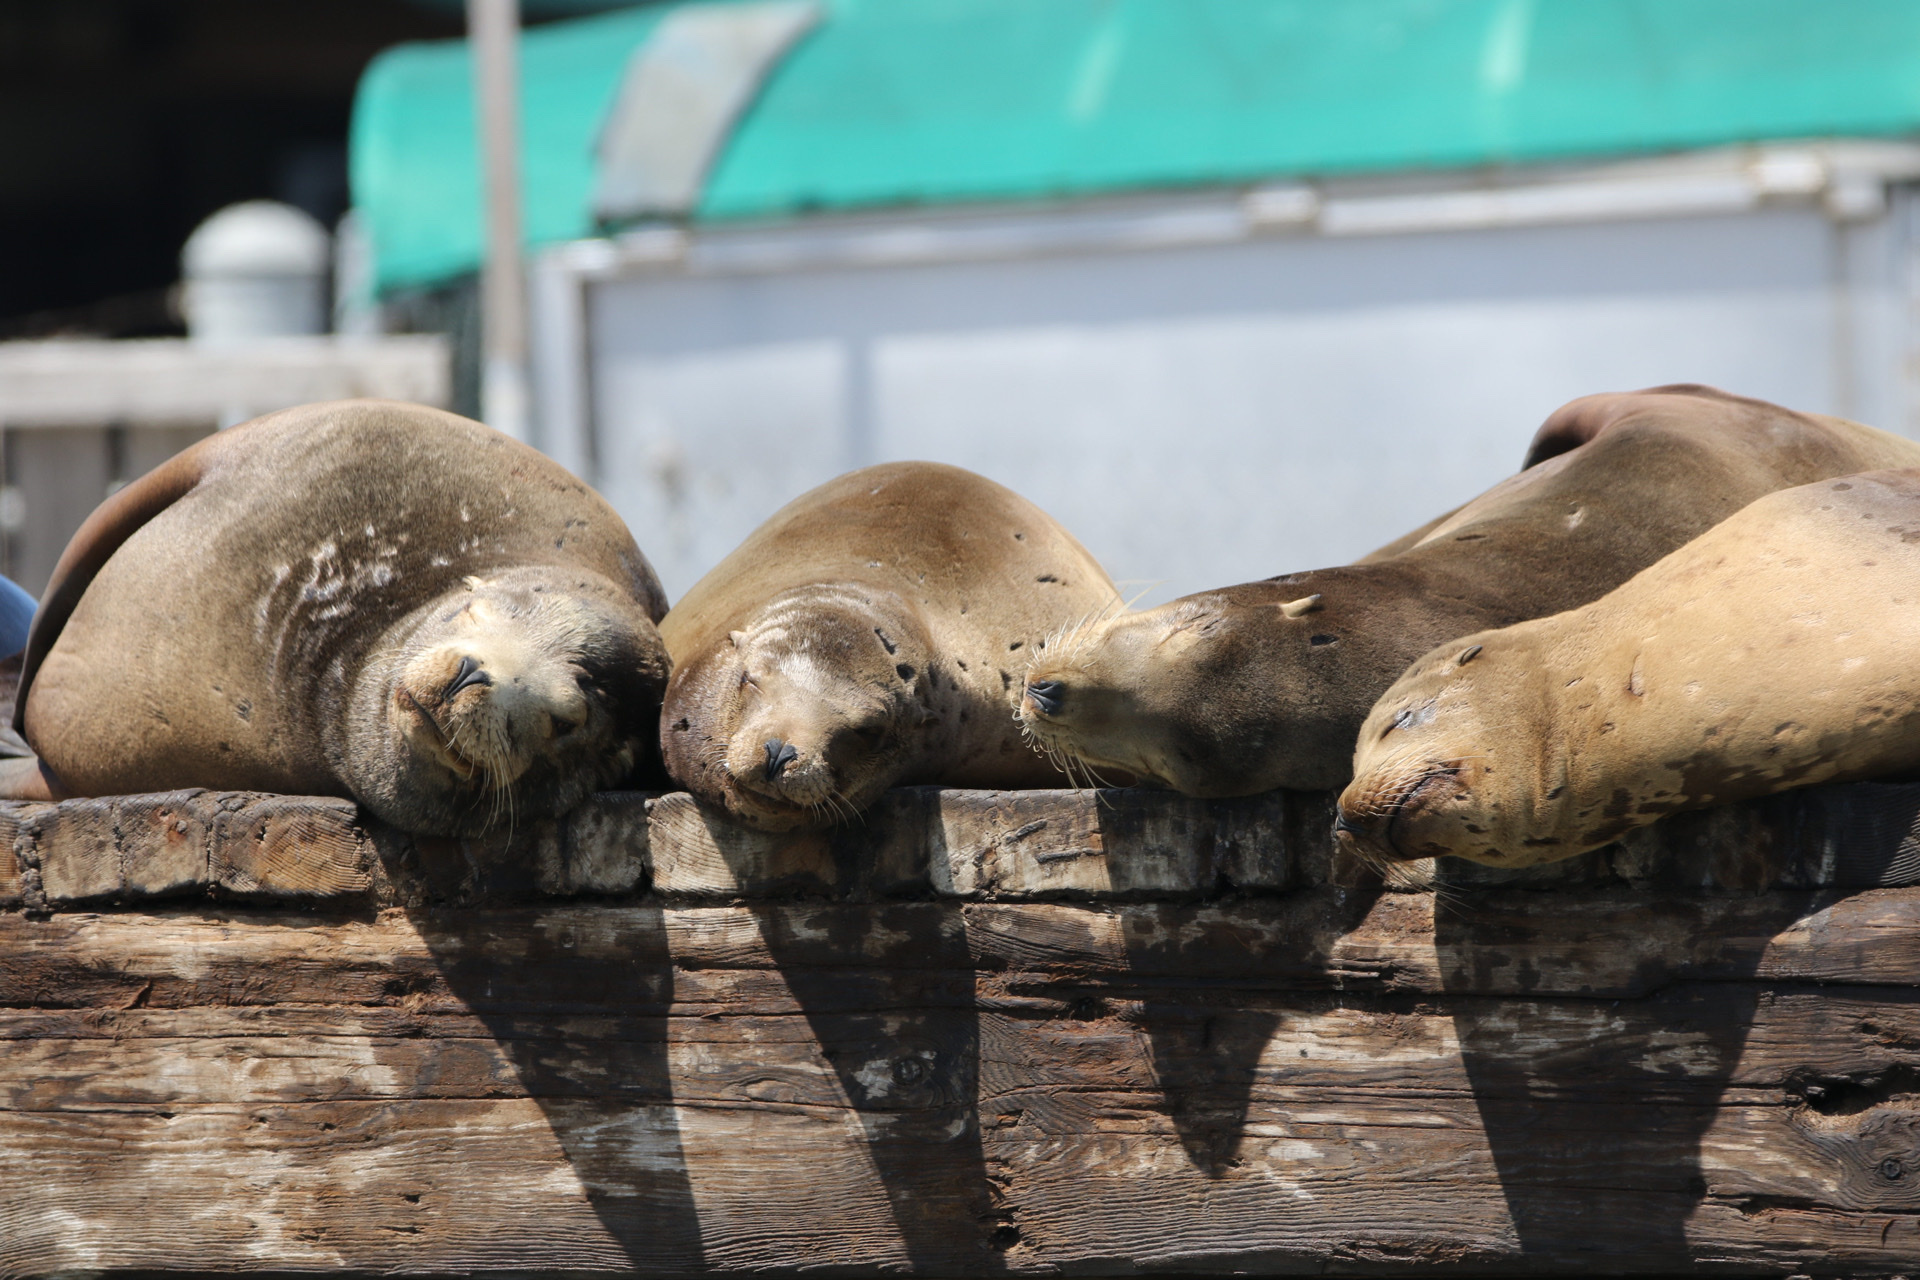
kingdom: Animalia
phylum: Chordata
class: Mammalia
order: Carnivora
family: Otariidae
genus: Zalophus
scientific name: Zalophus californianus
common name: California sea lion
